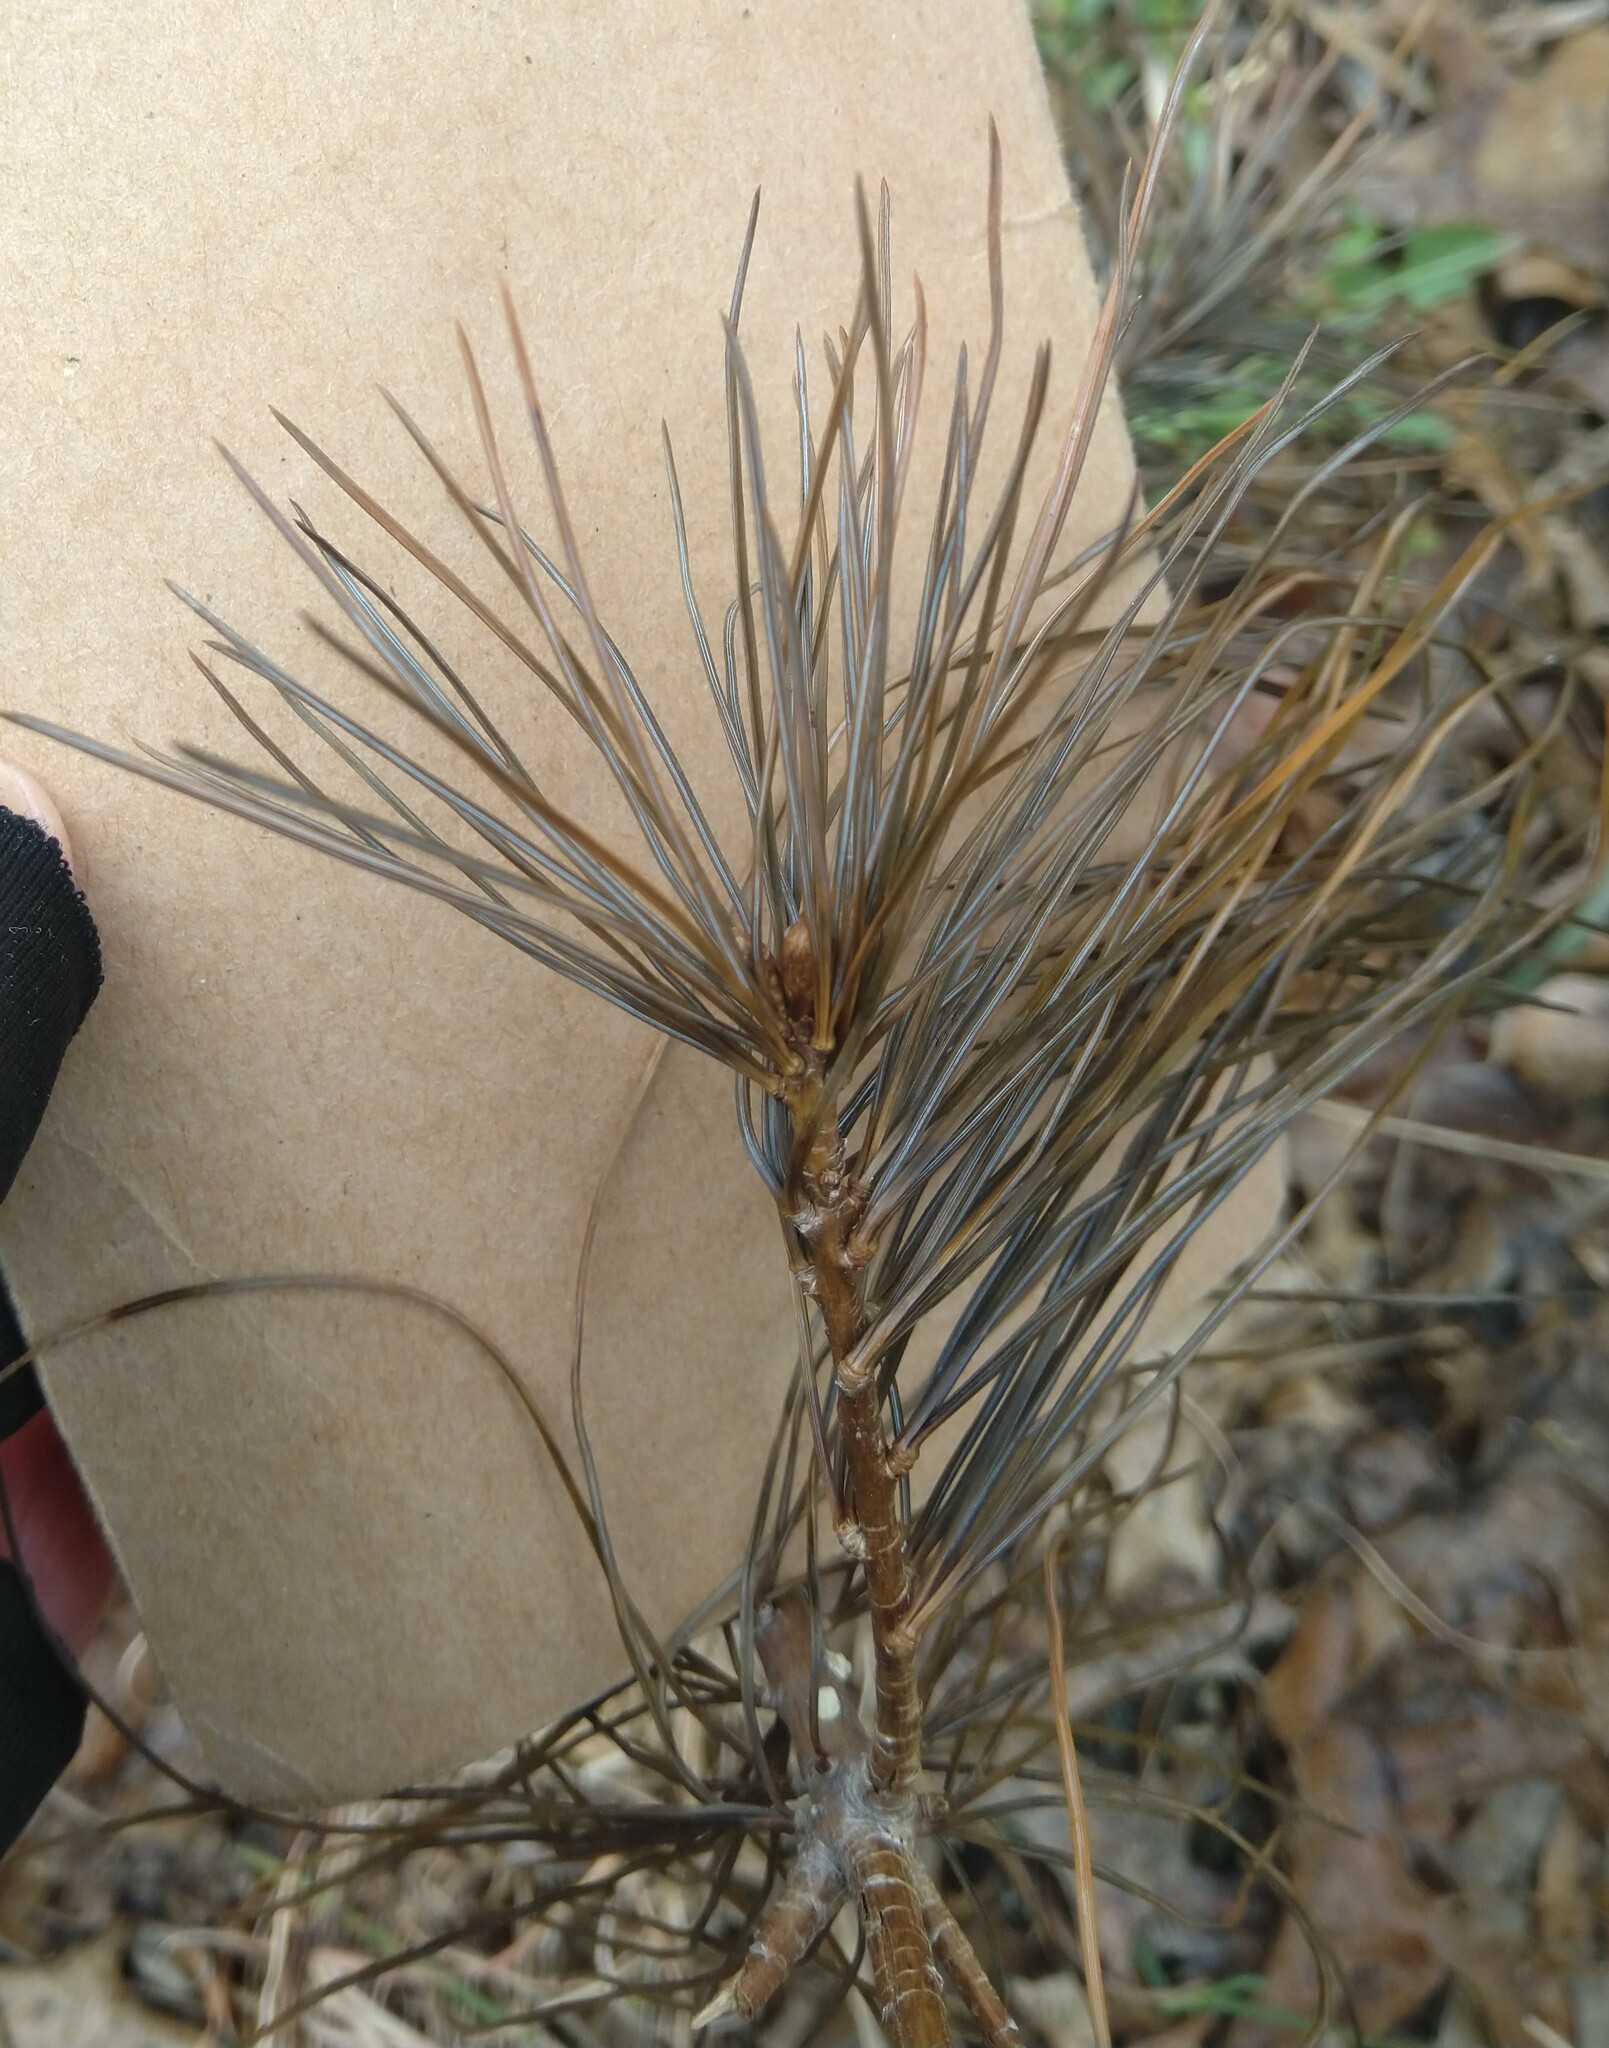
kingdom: Plantae
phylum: Tracheophyta
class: Pinopsida
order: Pinales
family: Pinaceae
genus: Pinus
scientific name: Pinus strobus
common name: Weymouth pine
